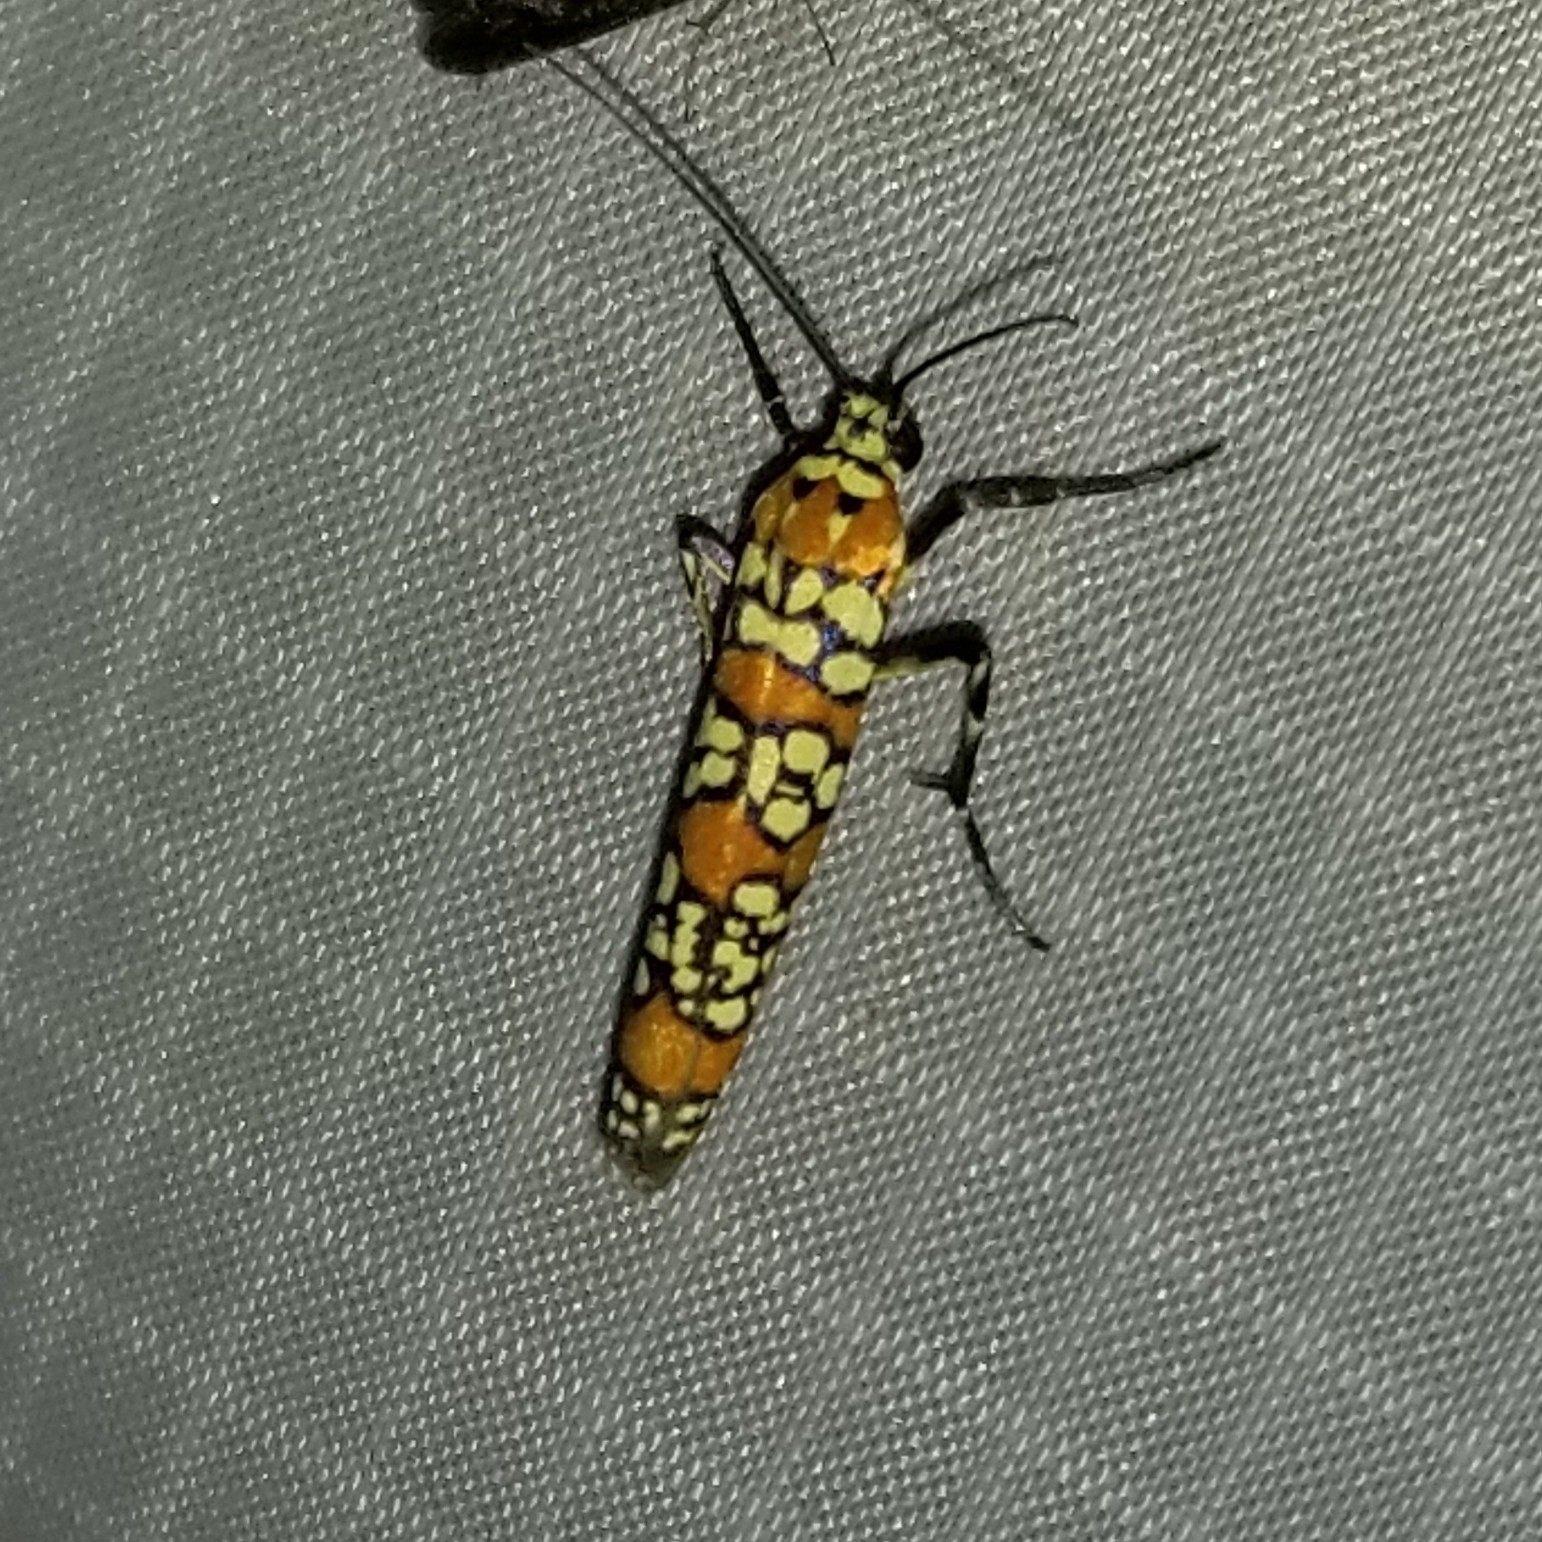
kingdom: Animalia
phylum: Arthropoda
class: Insecta
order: Lepidoptera
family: Attevidae
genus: Atteva
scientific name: Atteva punctella
